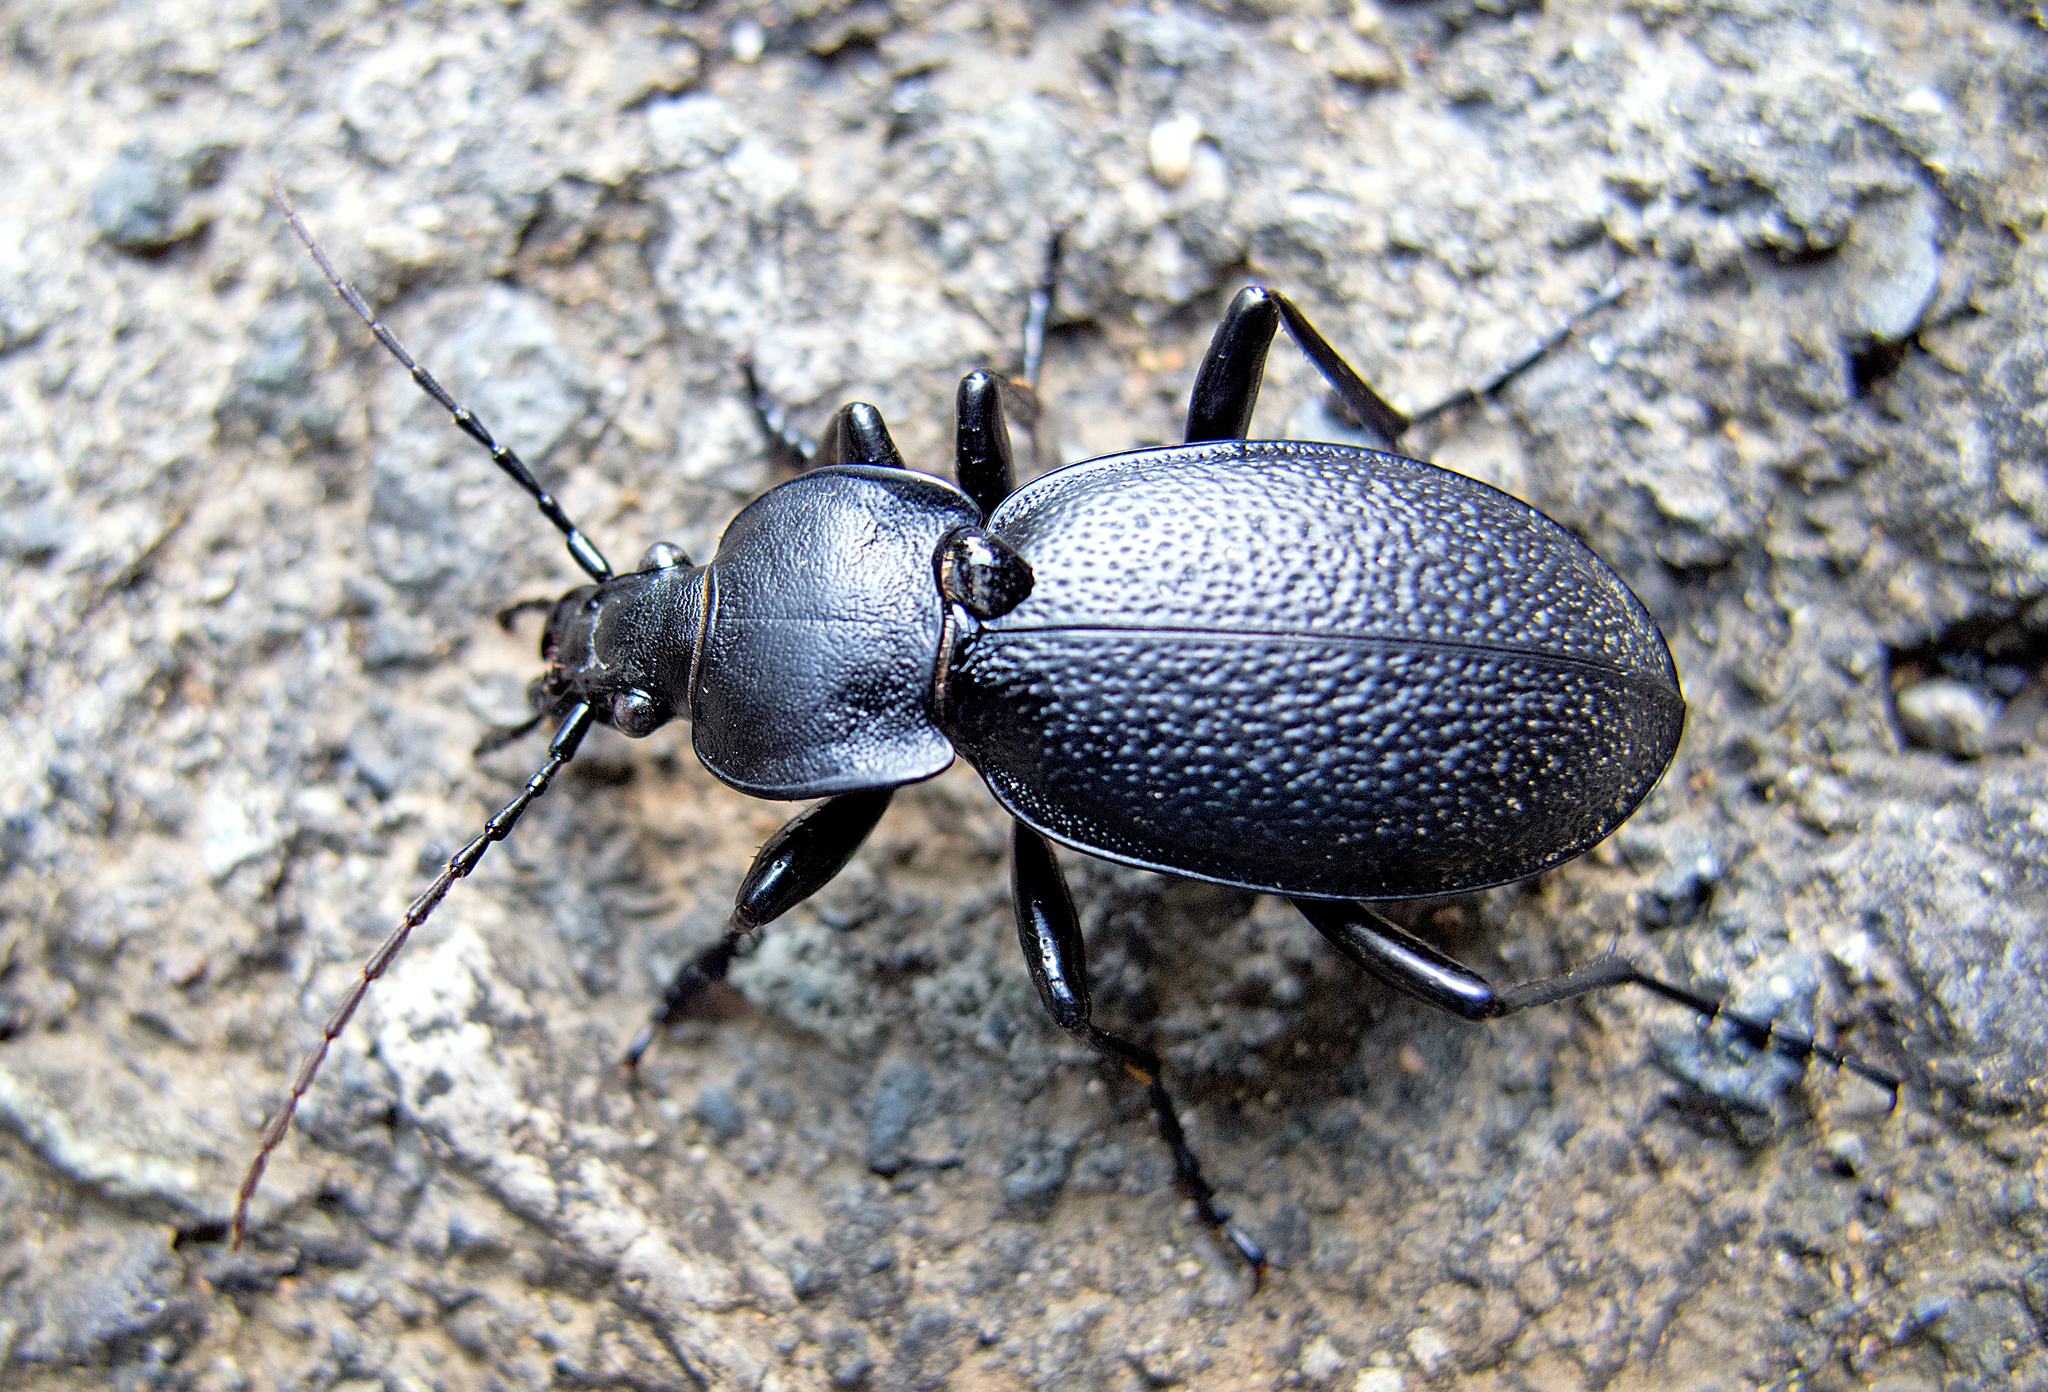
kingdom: Animalia
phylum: Arthropoda
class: Insecta
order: Coleoptera
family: Carabidae
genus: Carabus
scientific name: Carabus coriaceus
